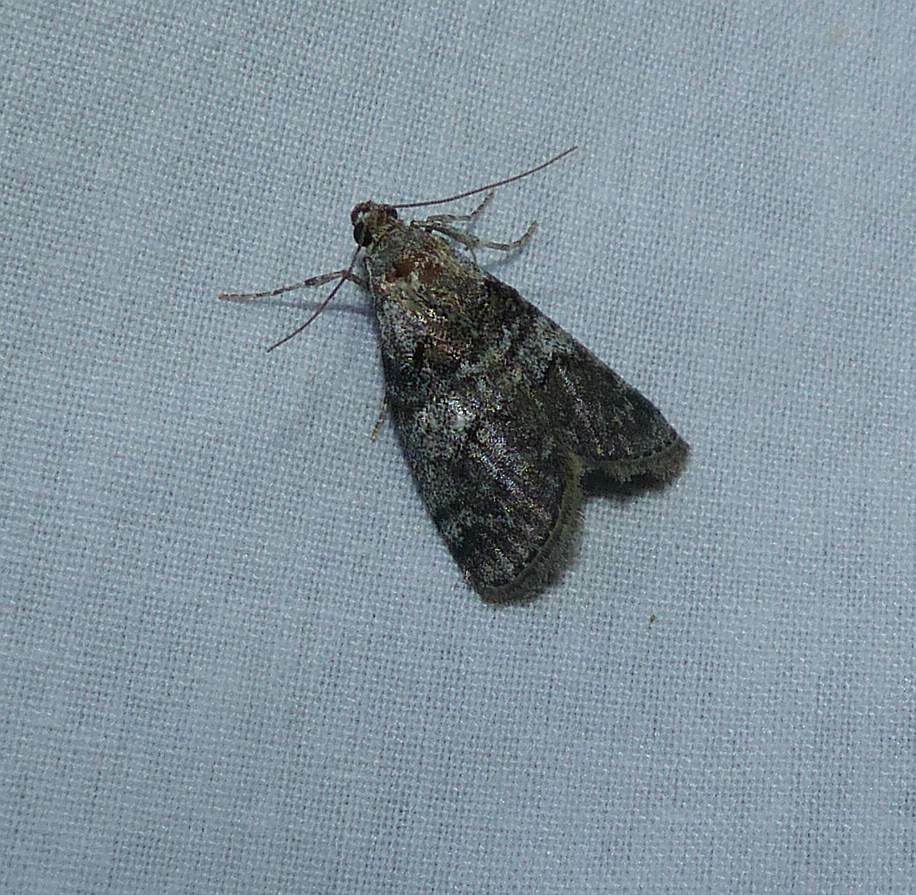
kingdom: Animalia
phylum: Arthropoda
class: Insecta
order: Lepidoptera
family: Pyralidae
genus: Pococera
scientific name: Pococera asperatella
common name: Maple webworm moth
